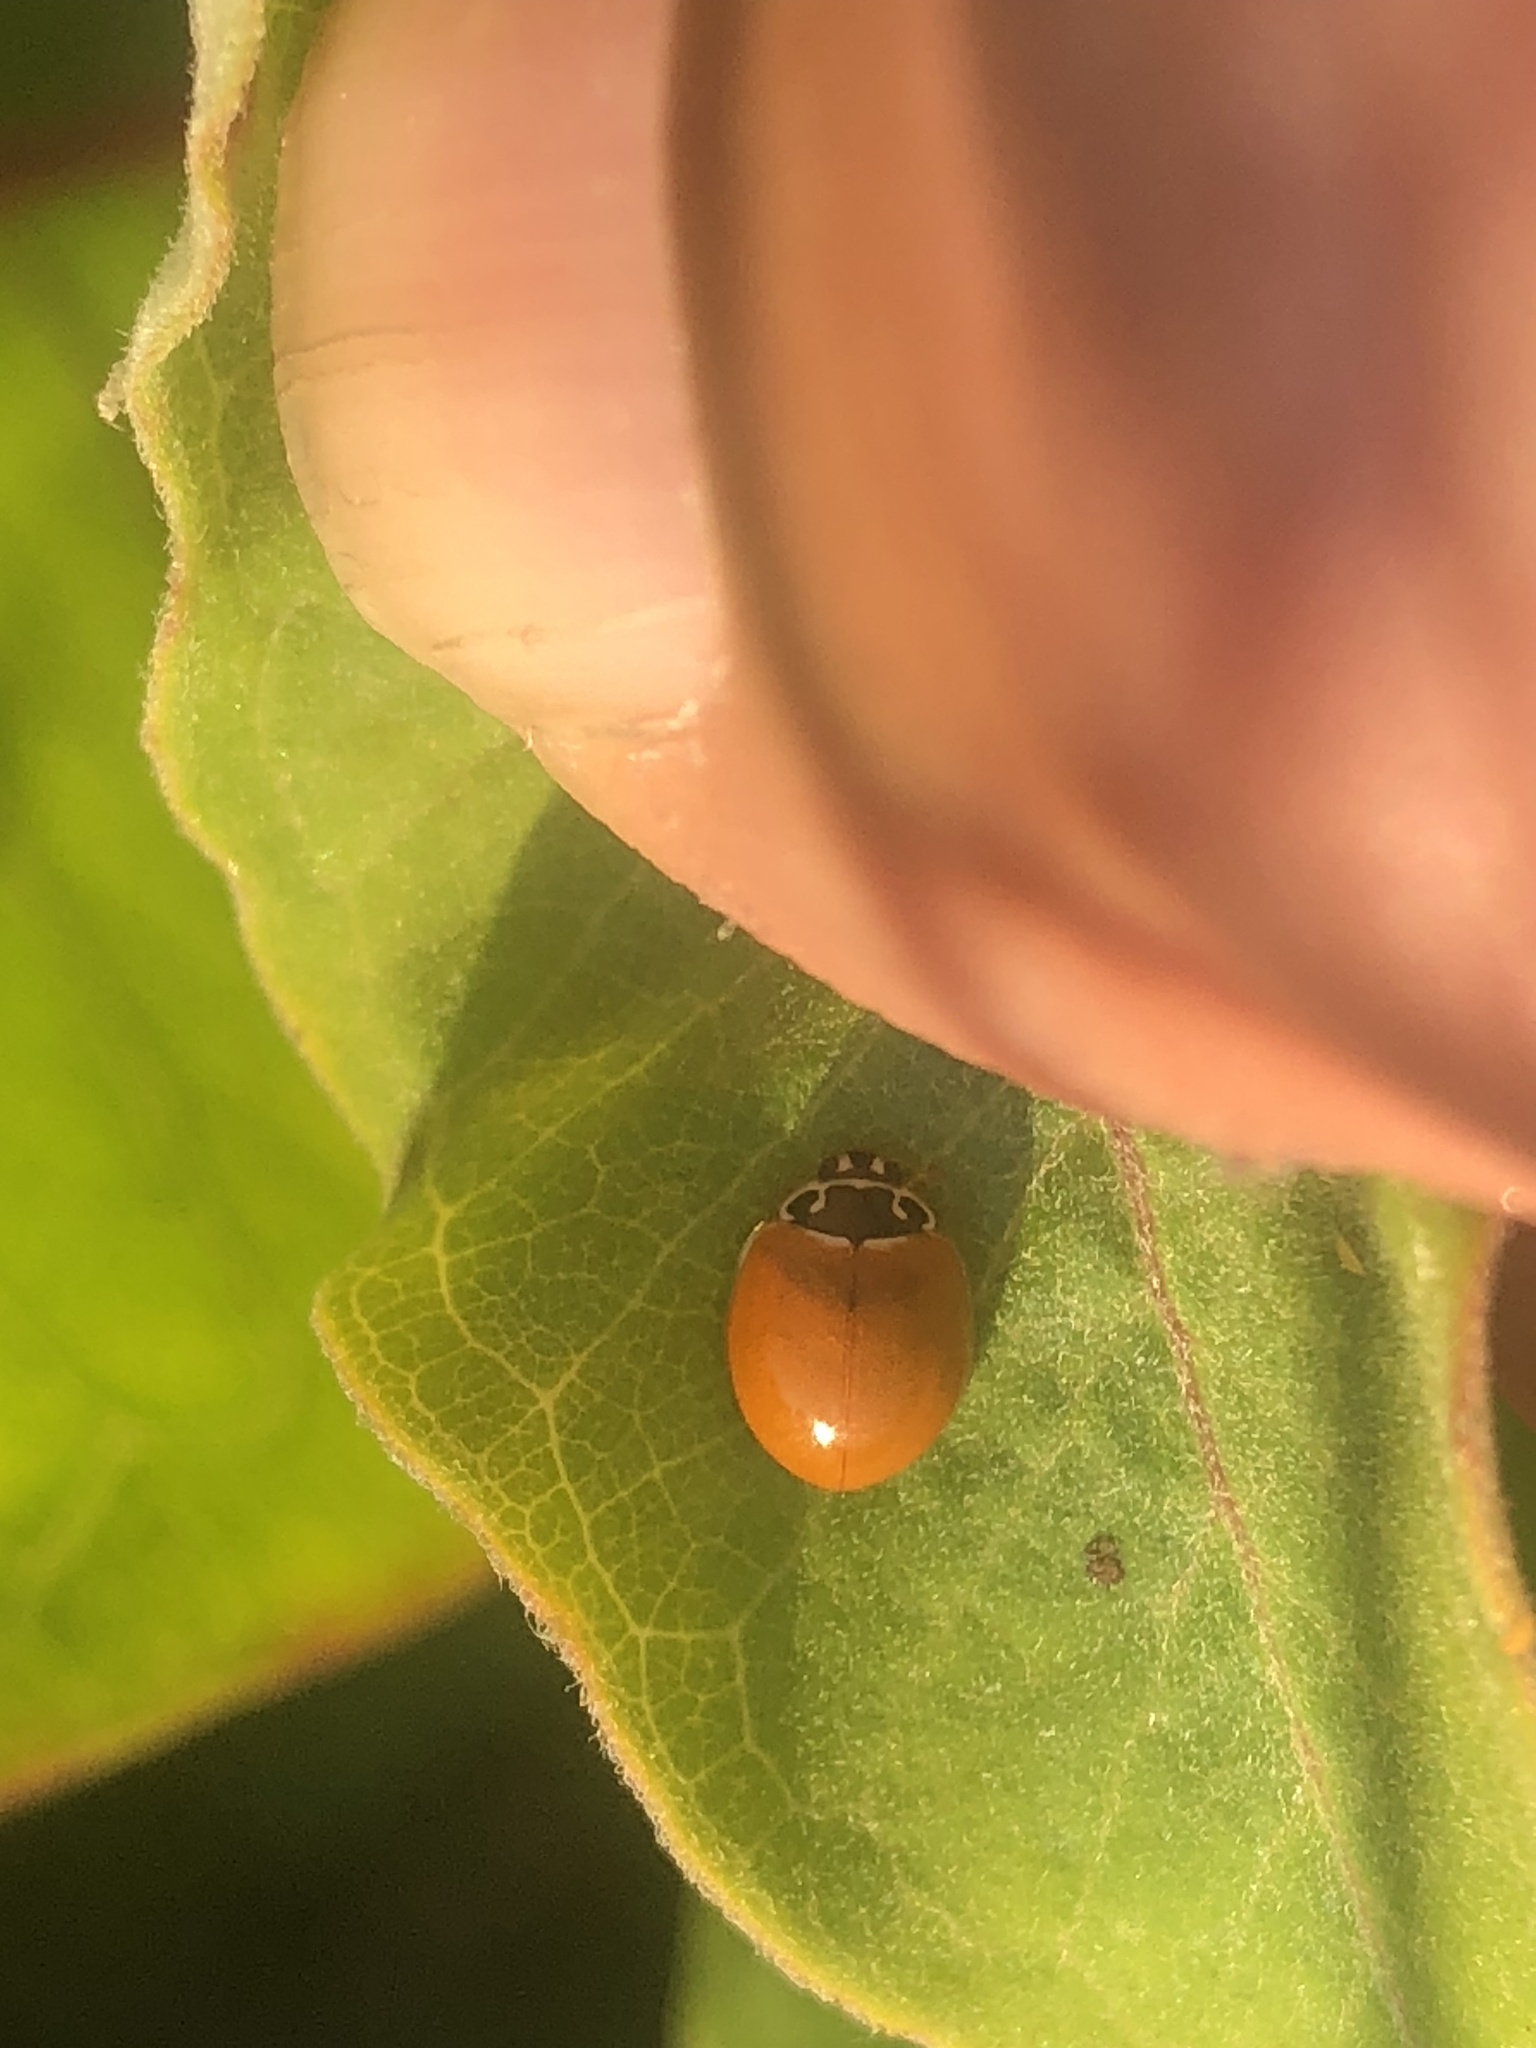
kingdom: Animalia
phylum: Arthropoda
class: Insecta
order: Coleoptera
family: Coccinellidae
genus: Cycloneda
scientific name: Cycloneda munda
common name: Polished lady beetle
